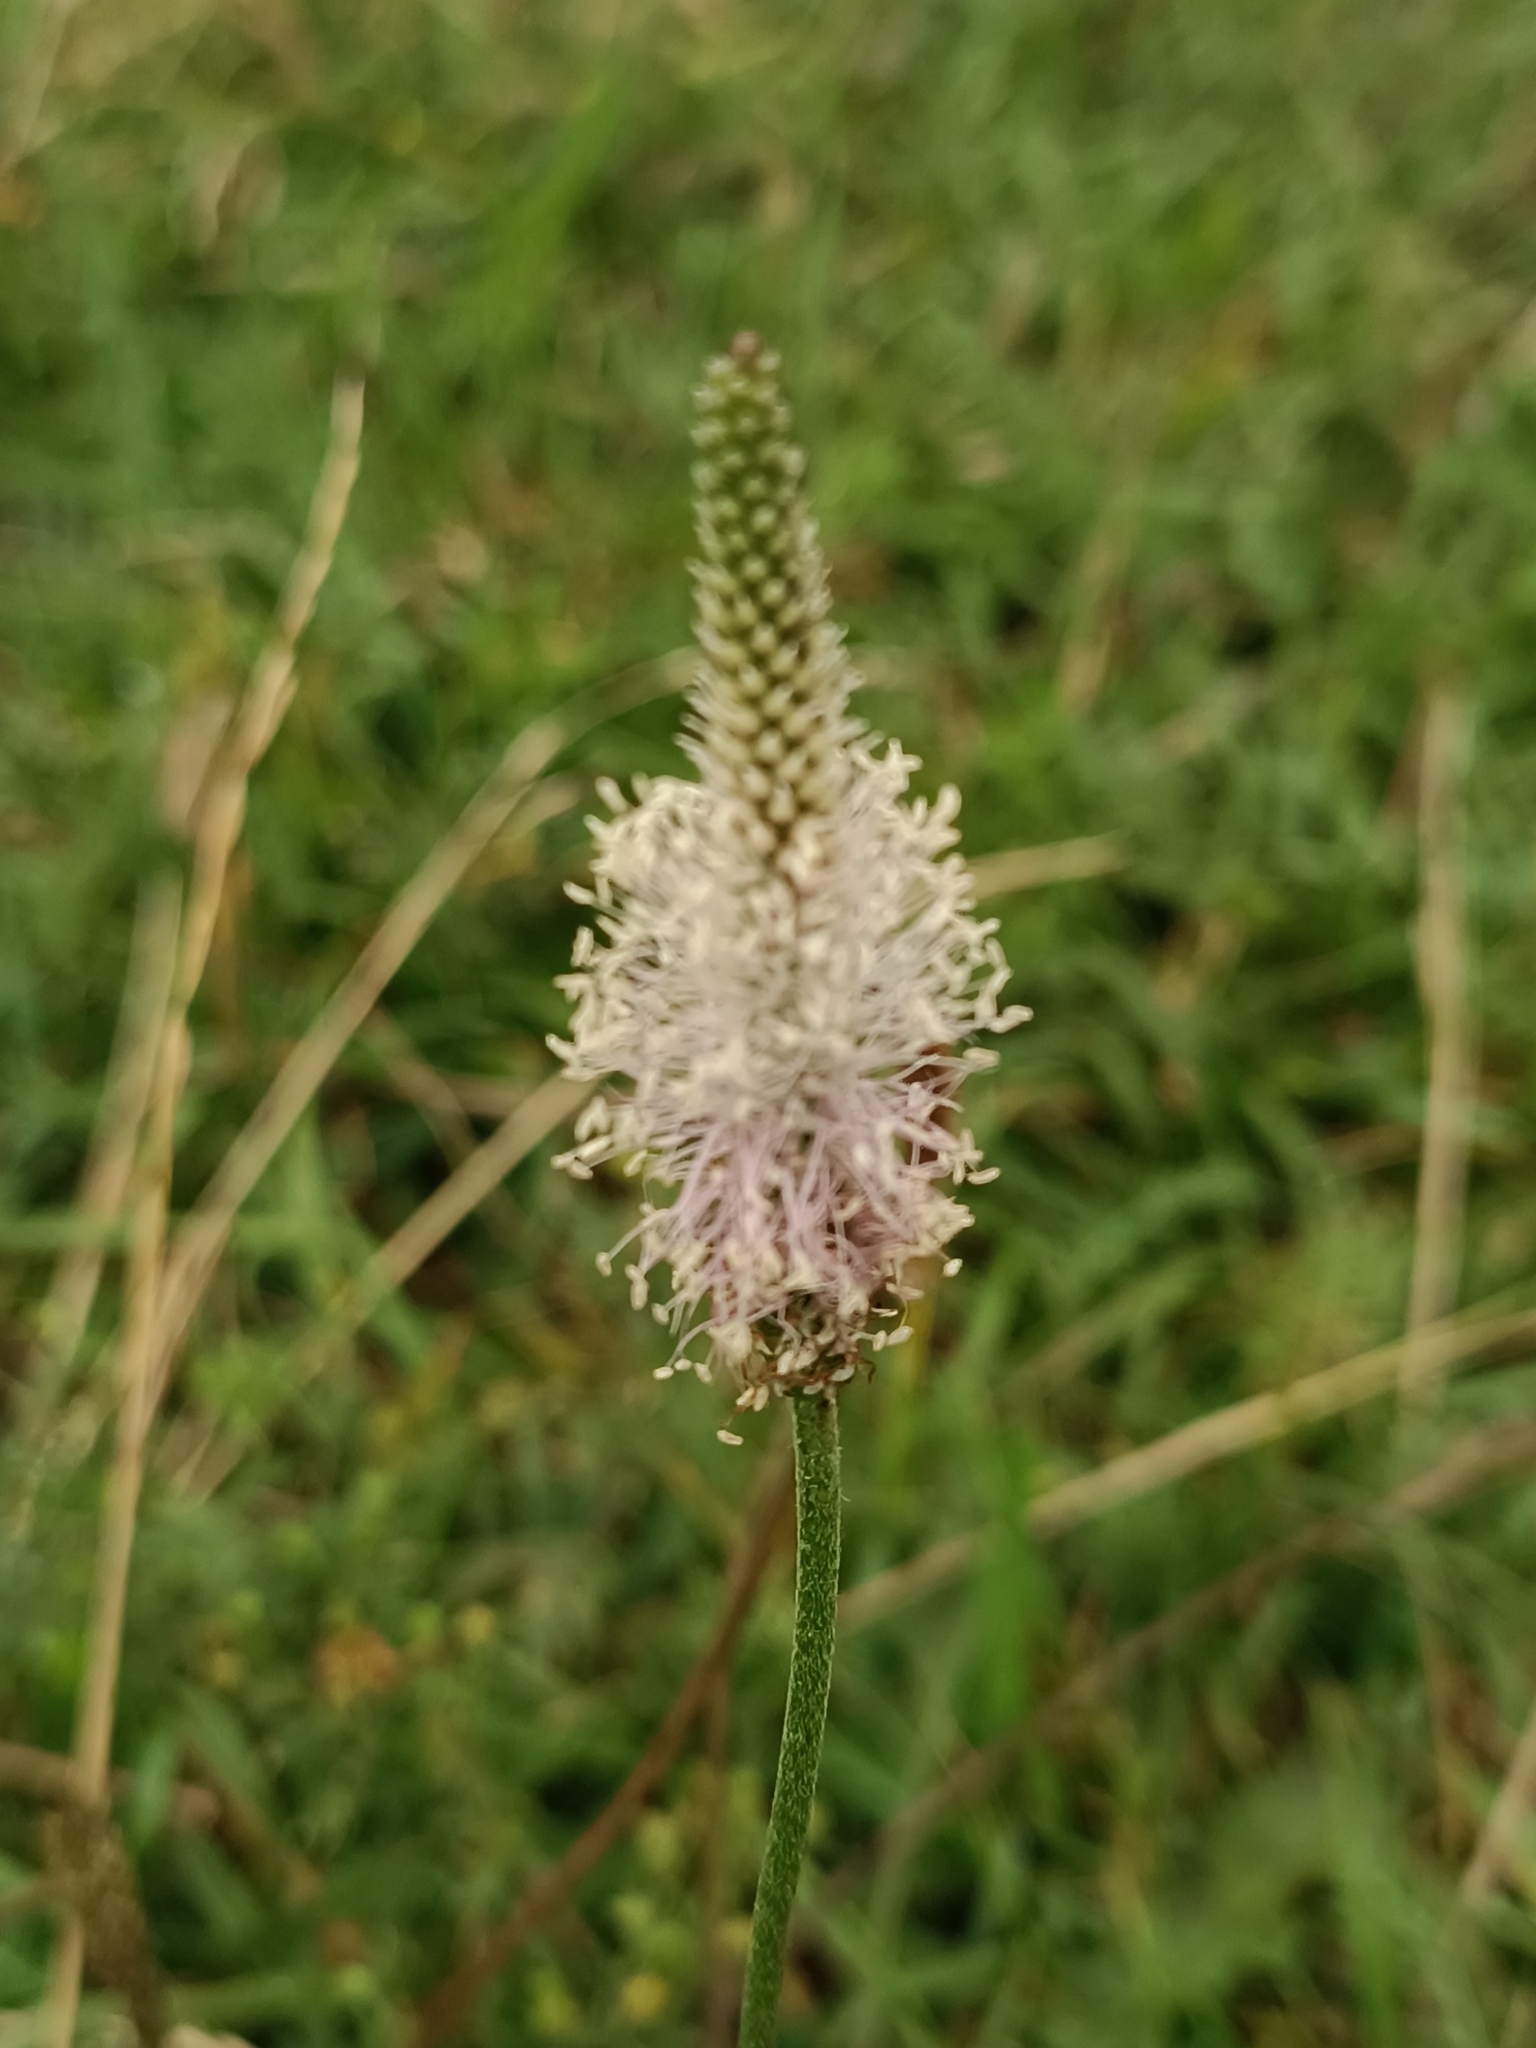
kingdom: Plantae
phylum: Tracheophyta
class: Magnoliopsida
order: Lamiales
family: Plantaginaceae
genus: Plantago
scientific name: Plantago media
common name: Hoary plantain
